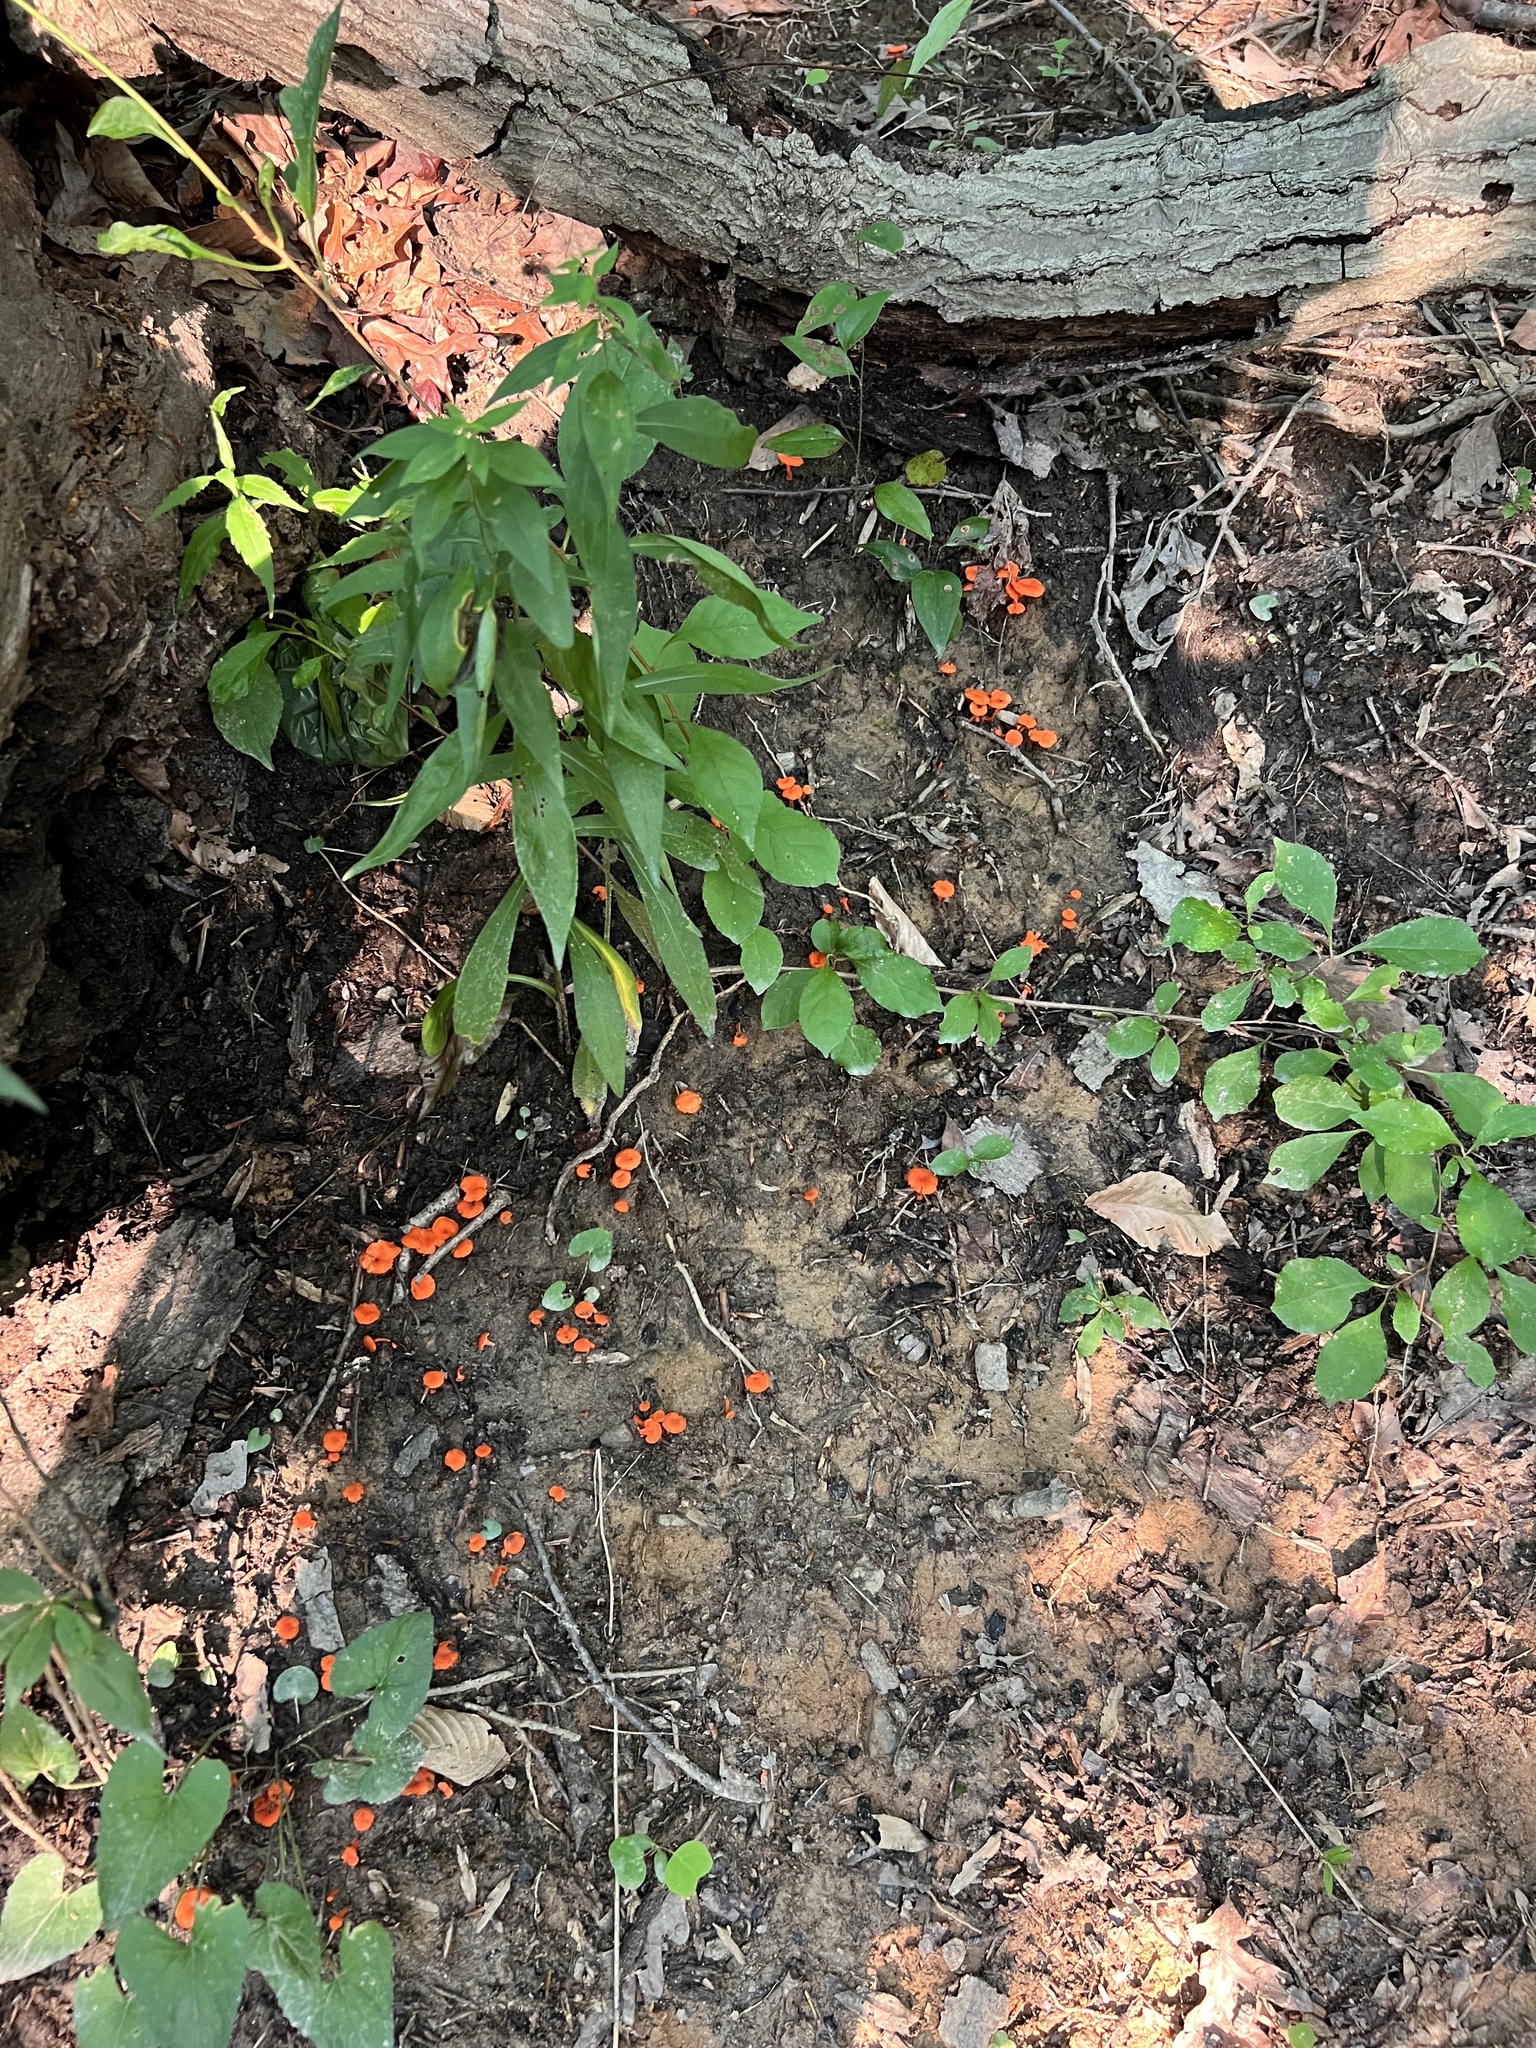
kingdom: Fungi
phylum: Basidiomycota
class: Agaricomycetes
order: Cantharellales
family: Hydnaceae
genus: Cantharellus
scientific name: Cantharellus cinnabarinus
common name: Cinnabar chanterelle
